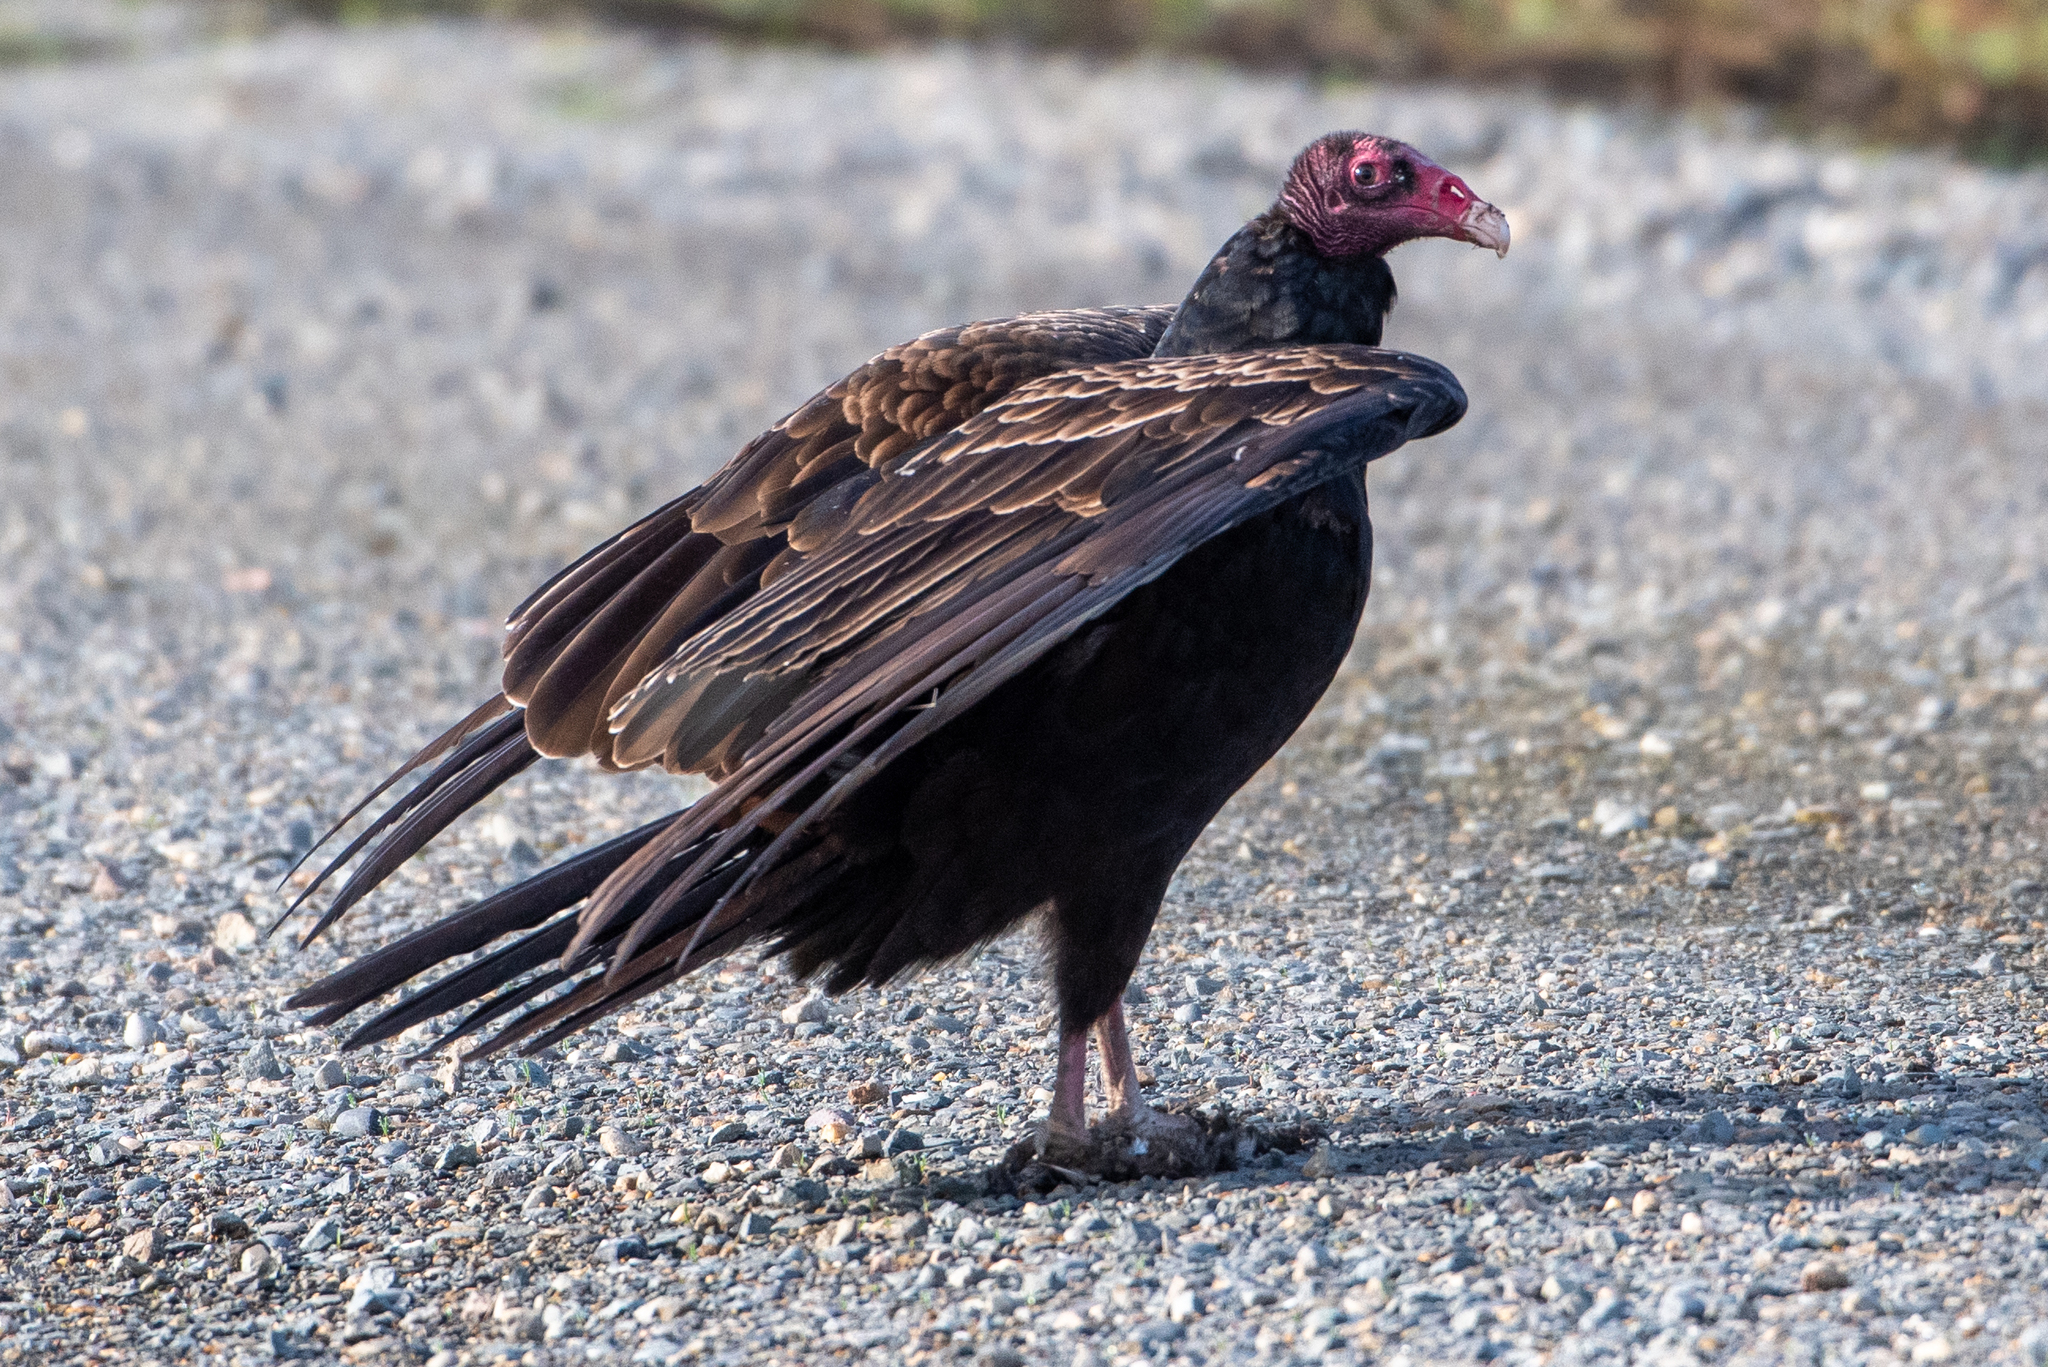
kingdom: Animalia
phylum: Chordata
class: Aves
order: Accipitriformes
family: Cathartidae
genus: Cathartes
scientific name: Cathartes aura
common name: Turkey vulture
